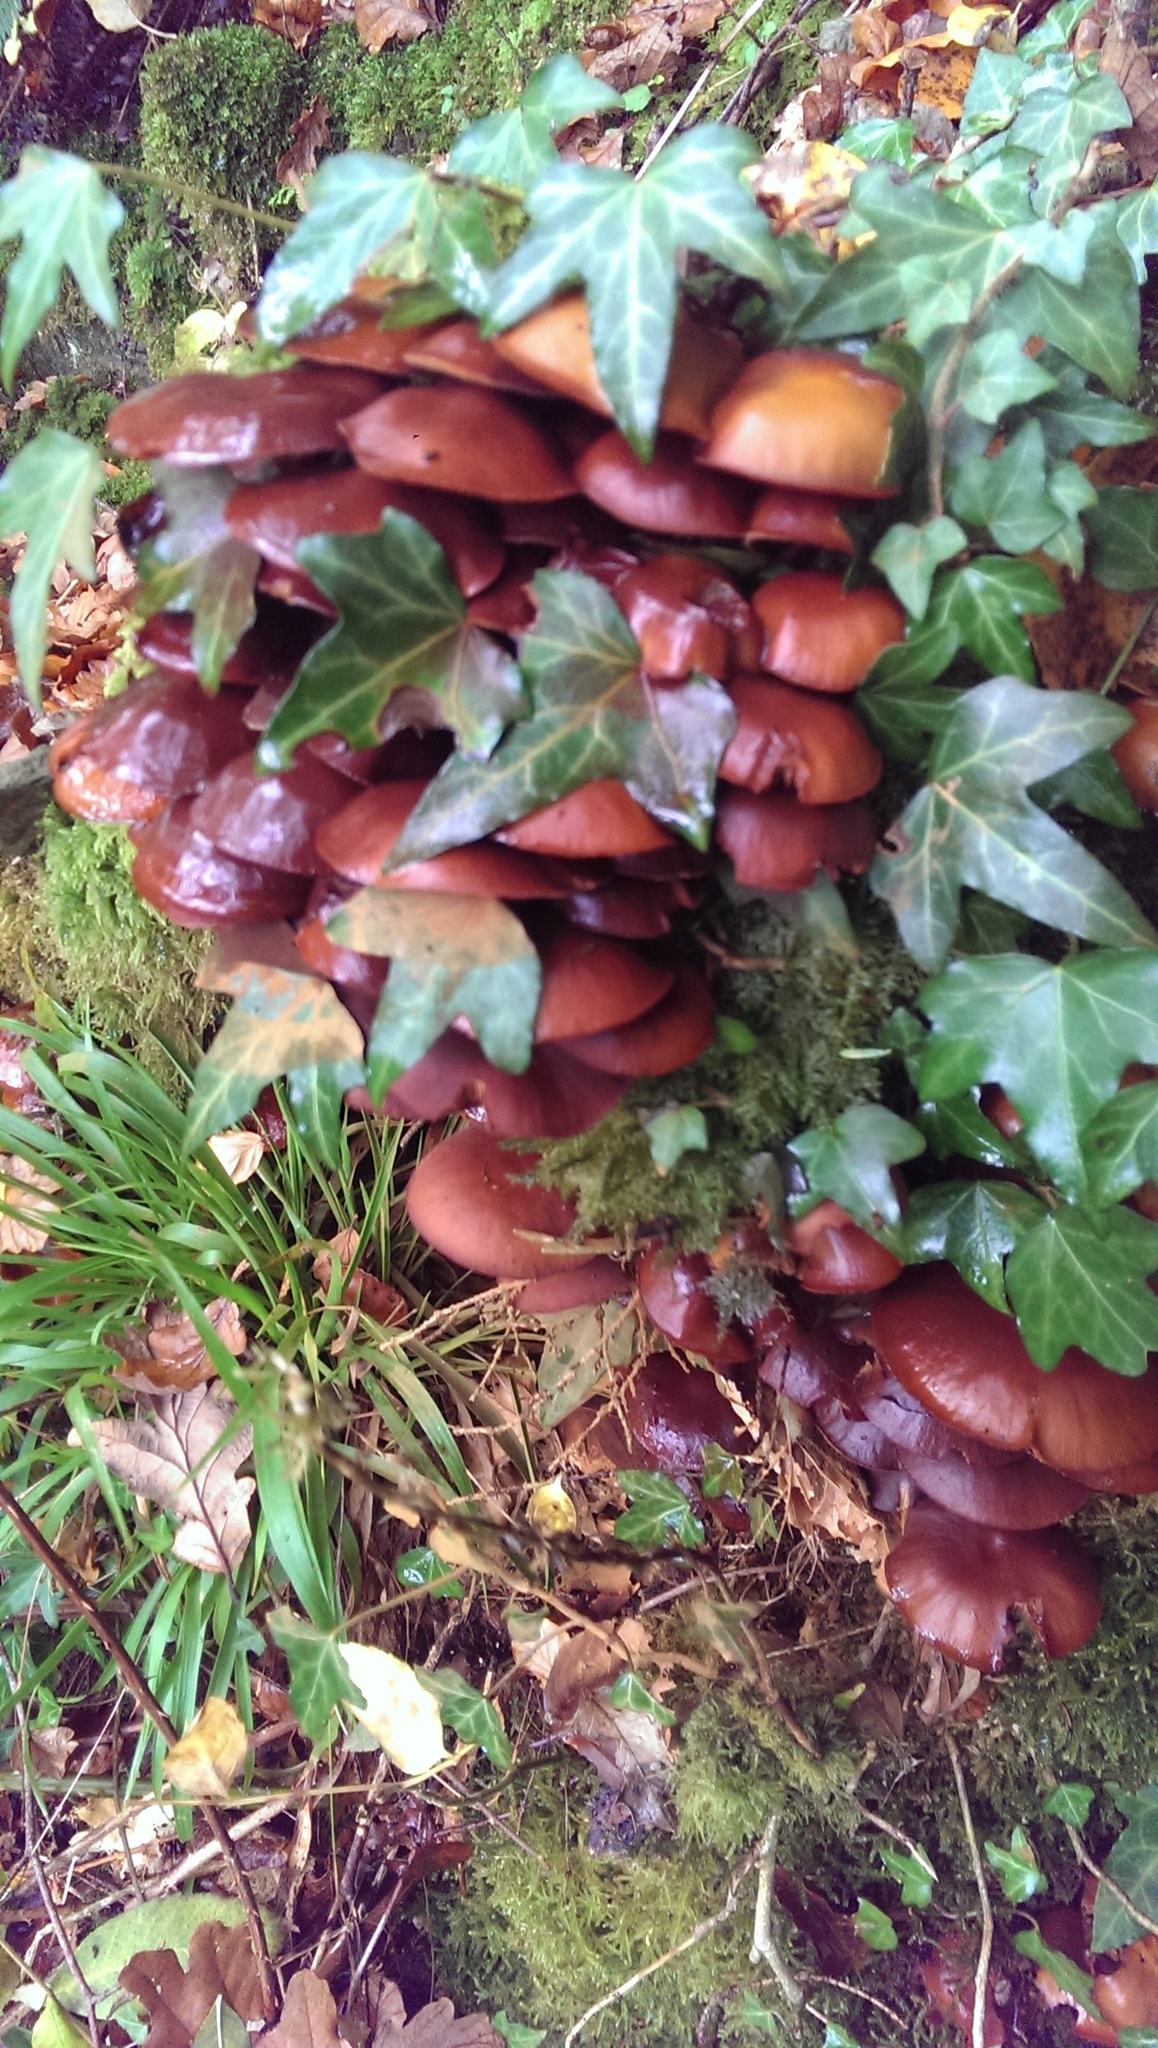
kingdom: Fungi
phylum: Basidiomycota
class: Agaricomycetes
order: Agaricales
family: Strophariaceae
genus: Kuehneromyces
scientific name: Kuehneromyces mutabilis
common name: Sheathed woodtuft
